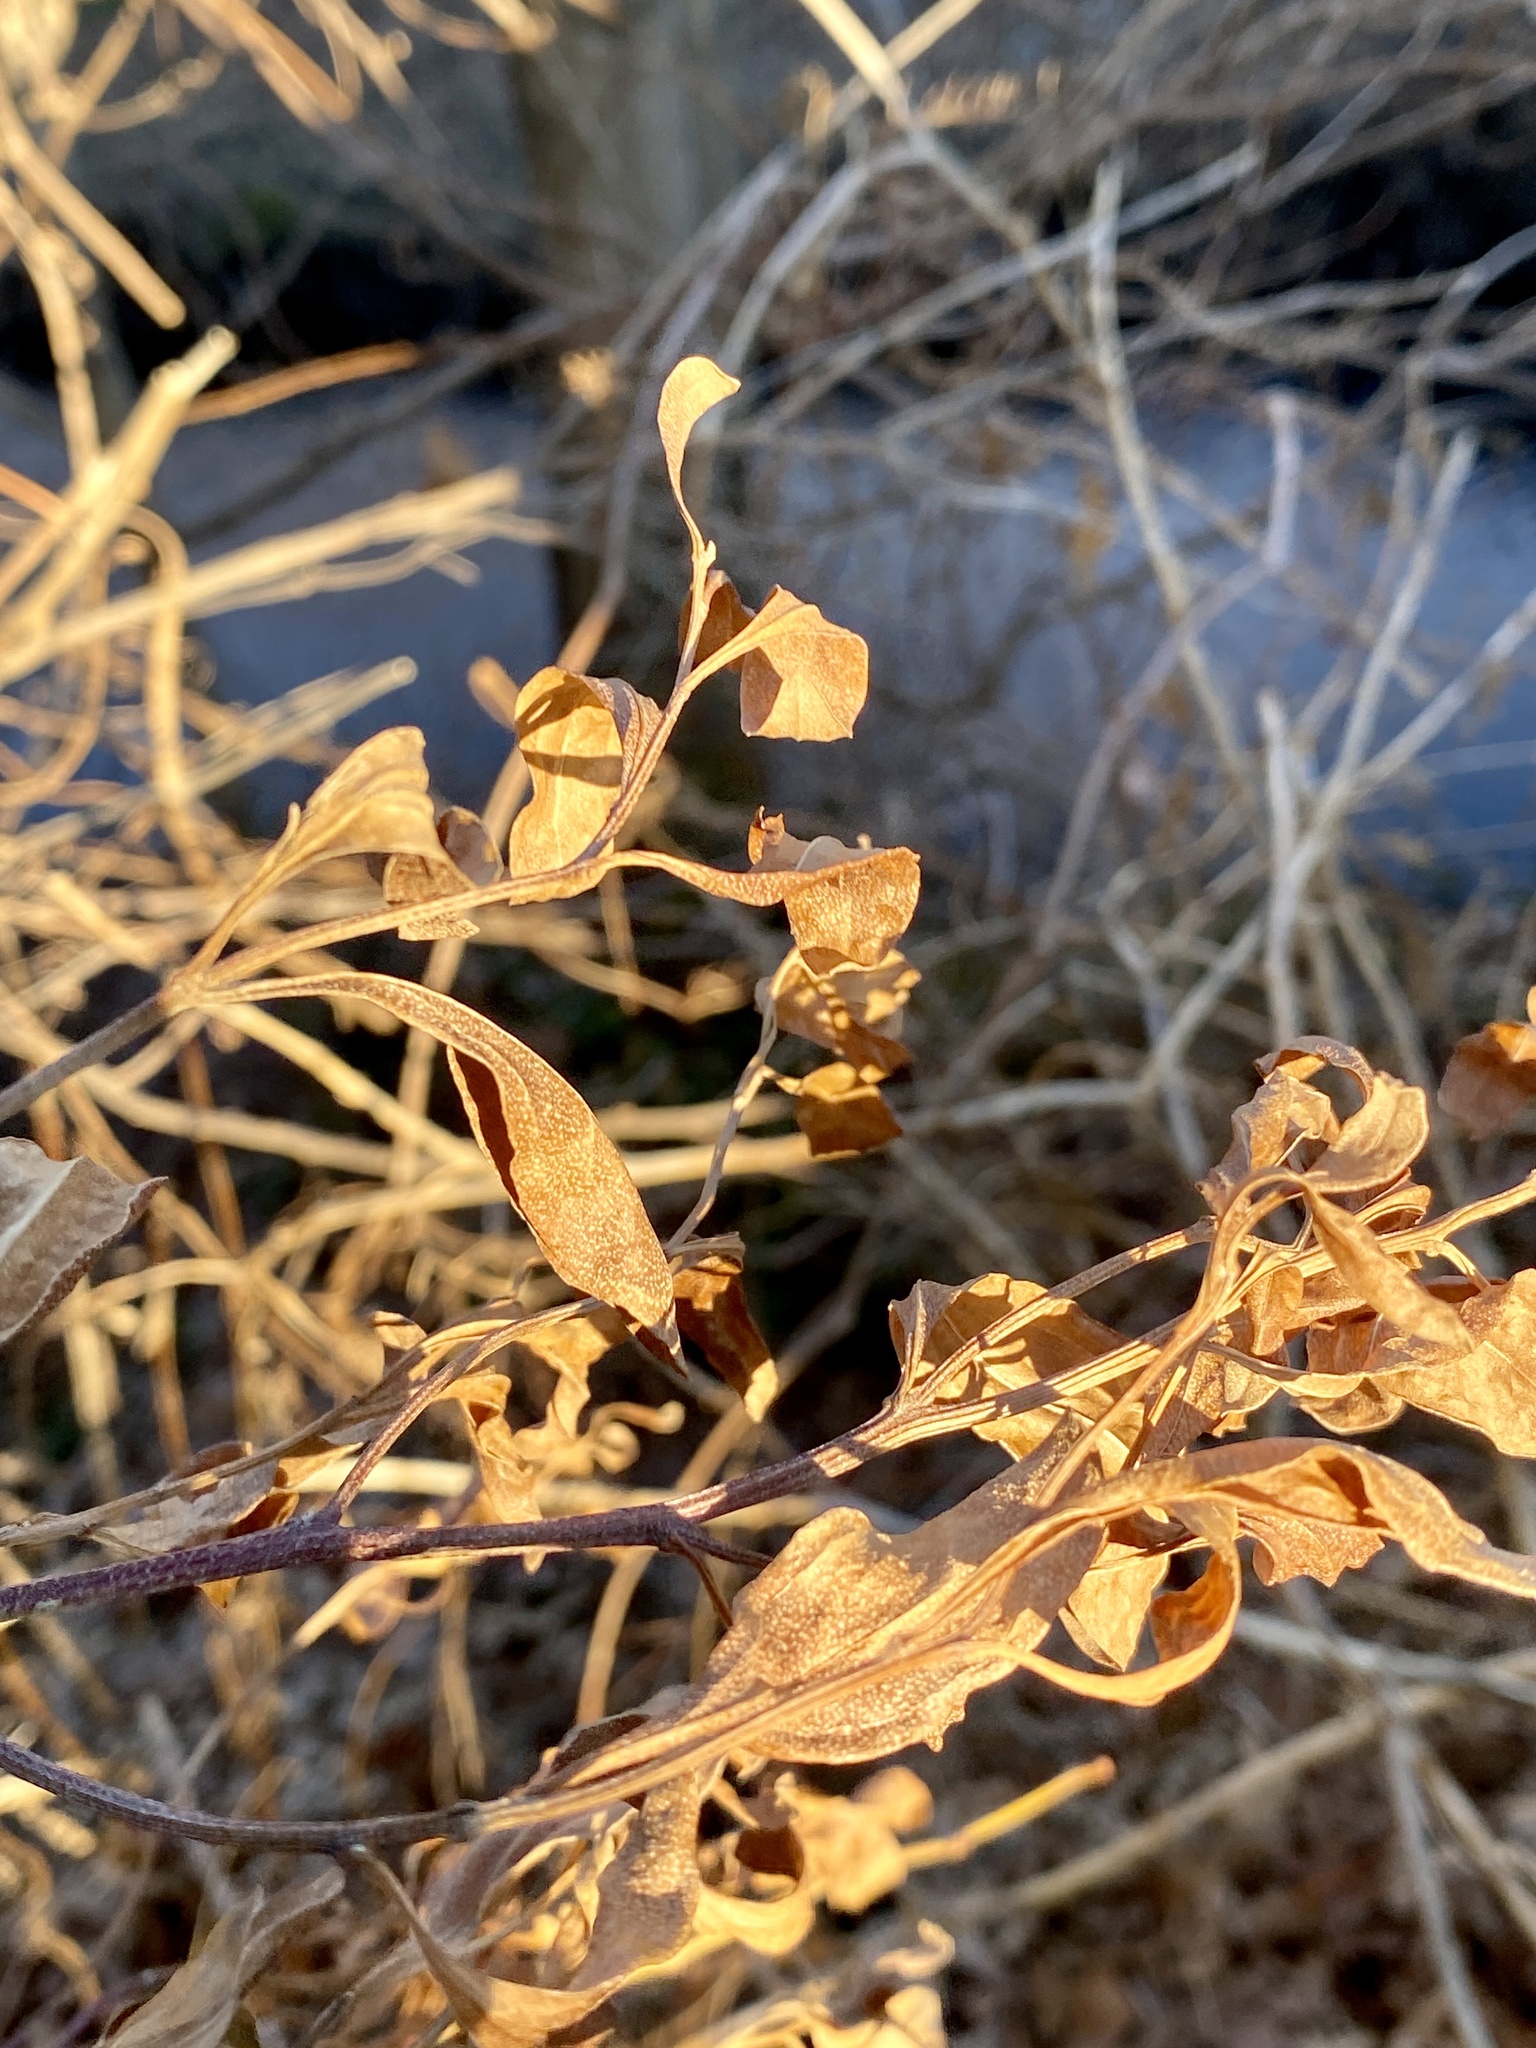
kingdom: Plantae
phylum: Tracheophyta
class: Magnoliopsida
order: Asterales
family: Asteraceae
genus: Baccharis
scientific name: Baccharis halimifolia
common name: Eastern baccharis
